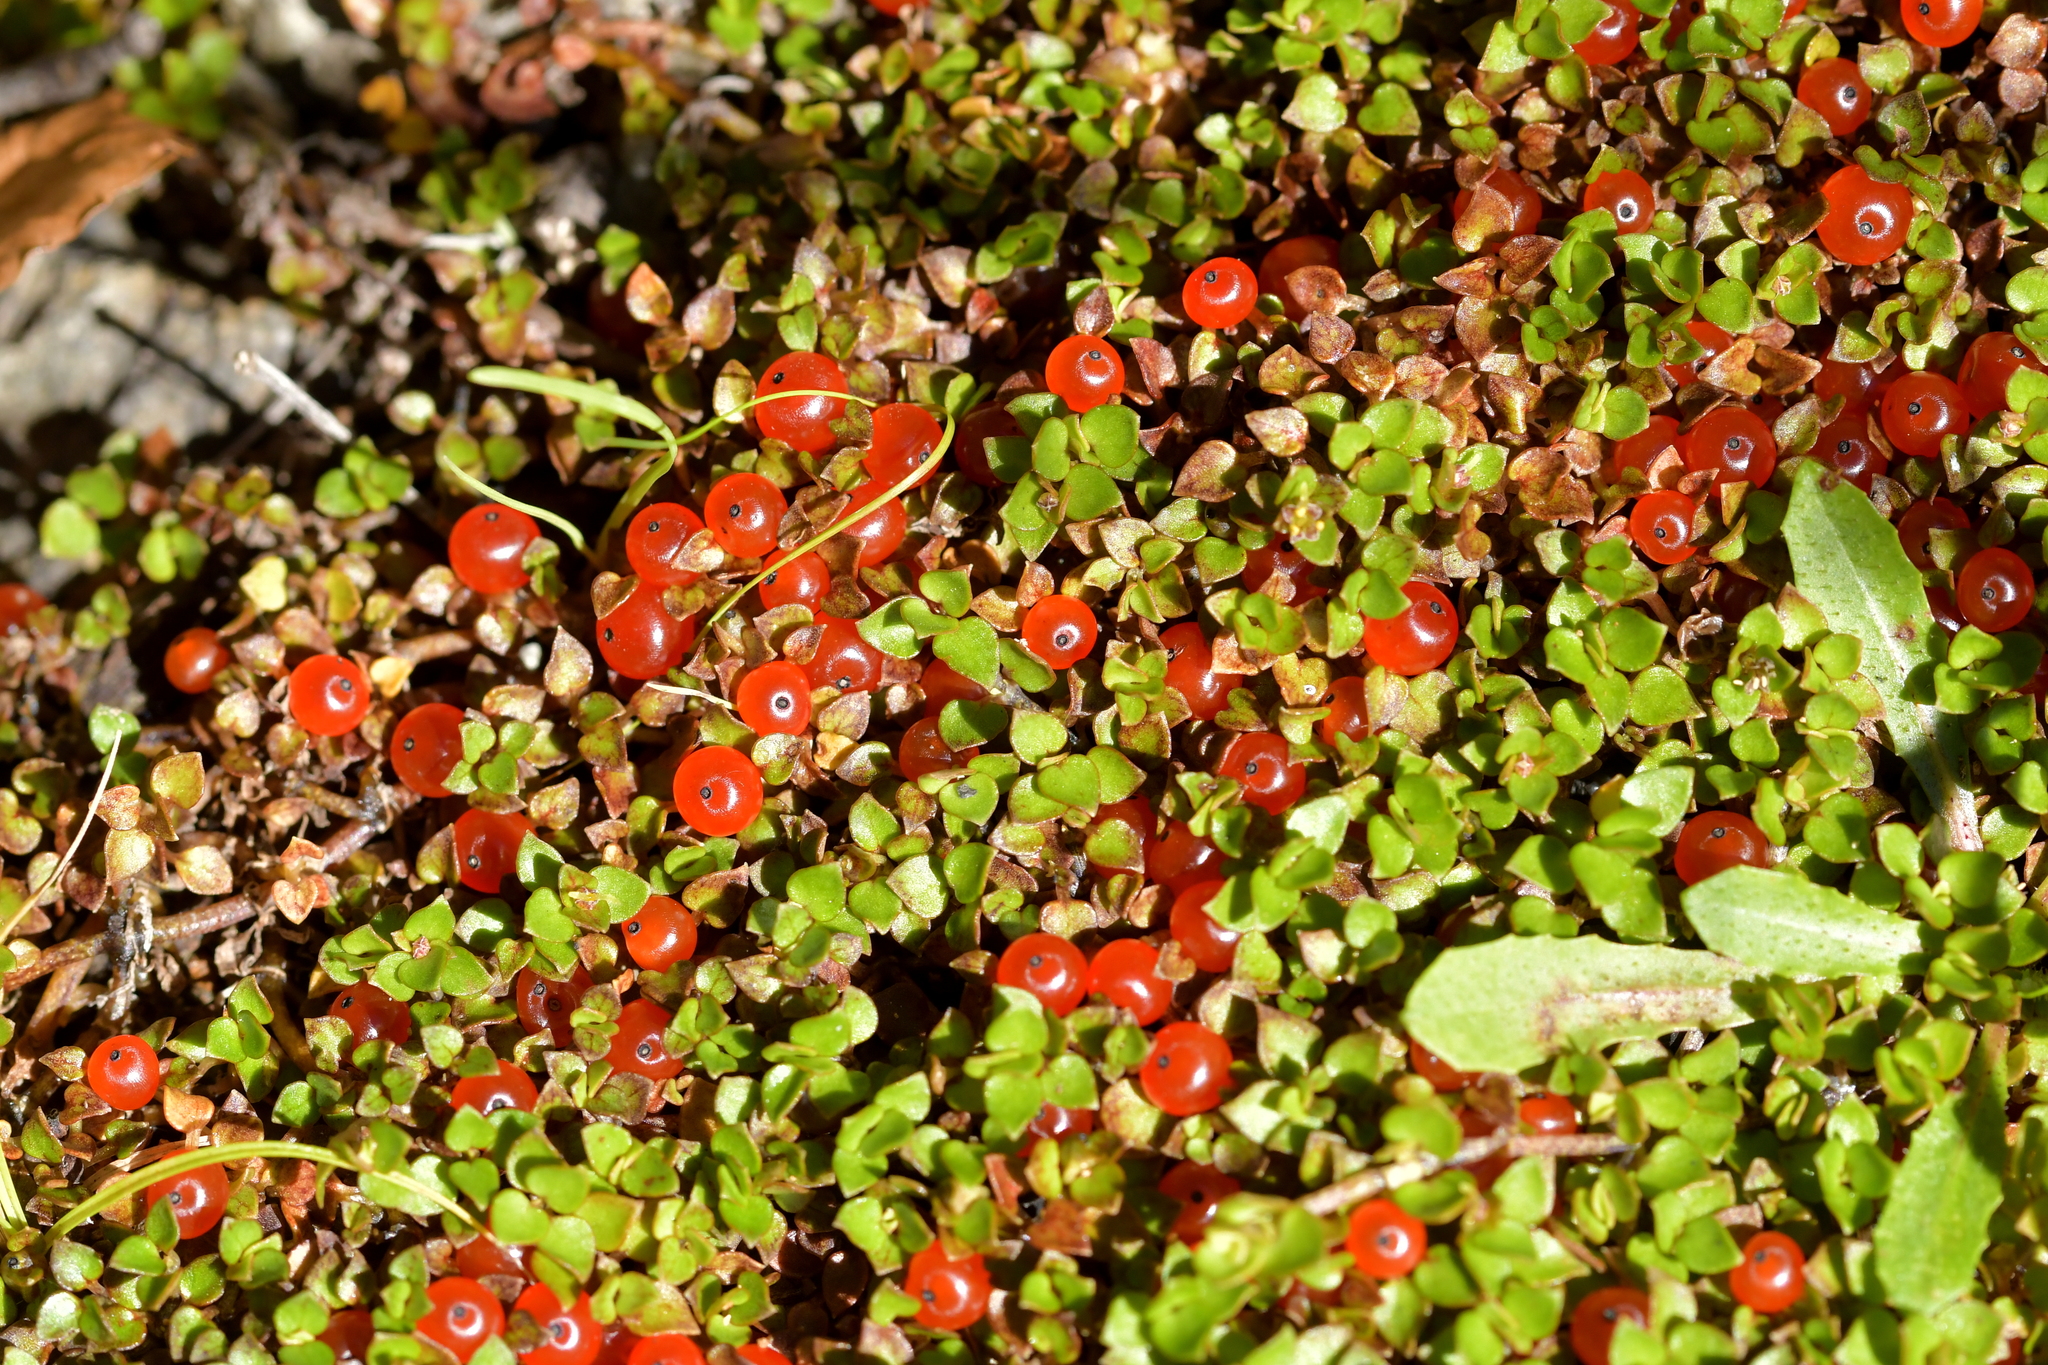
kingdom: Plantae
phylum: Tracheophyta
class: Magnoliopsida
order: Gentianales
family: Rubiaceae
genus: Nertera
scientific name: Nertera granadensis
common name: Beadplant
